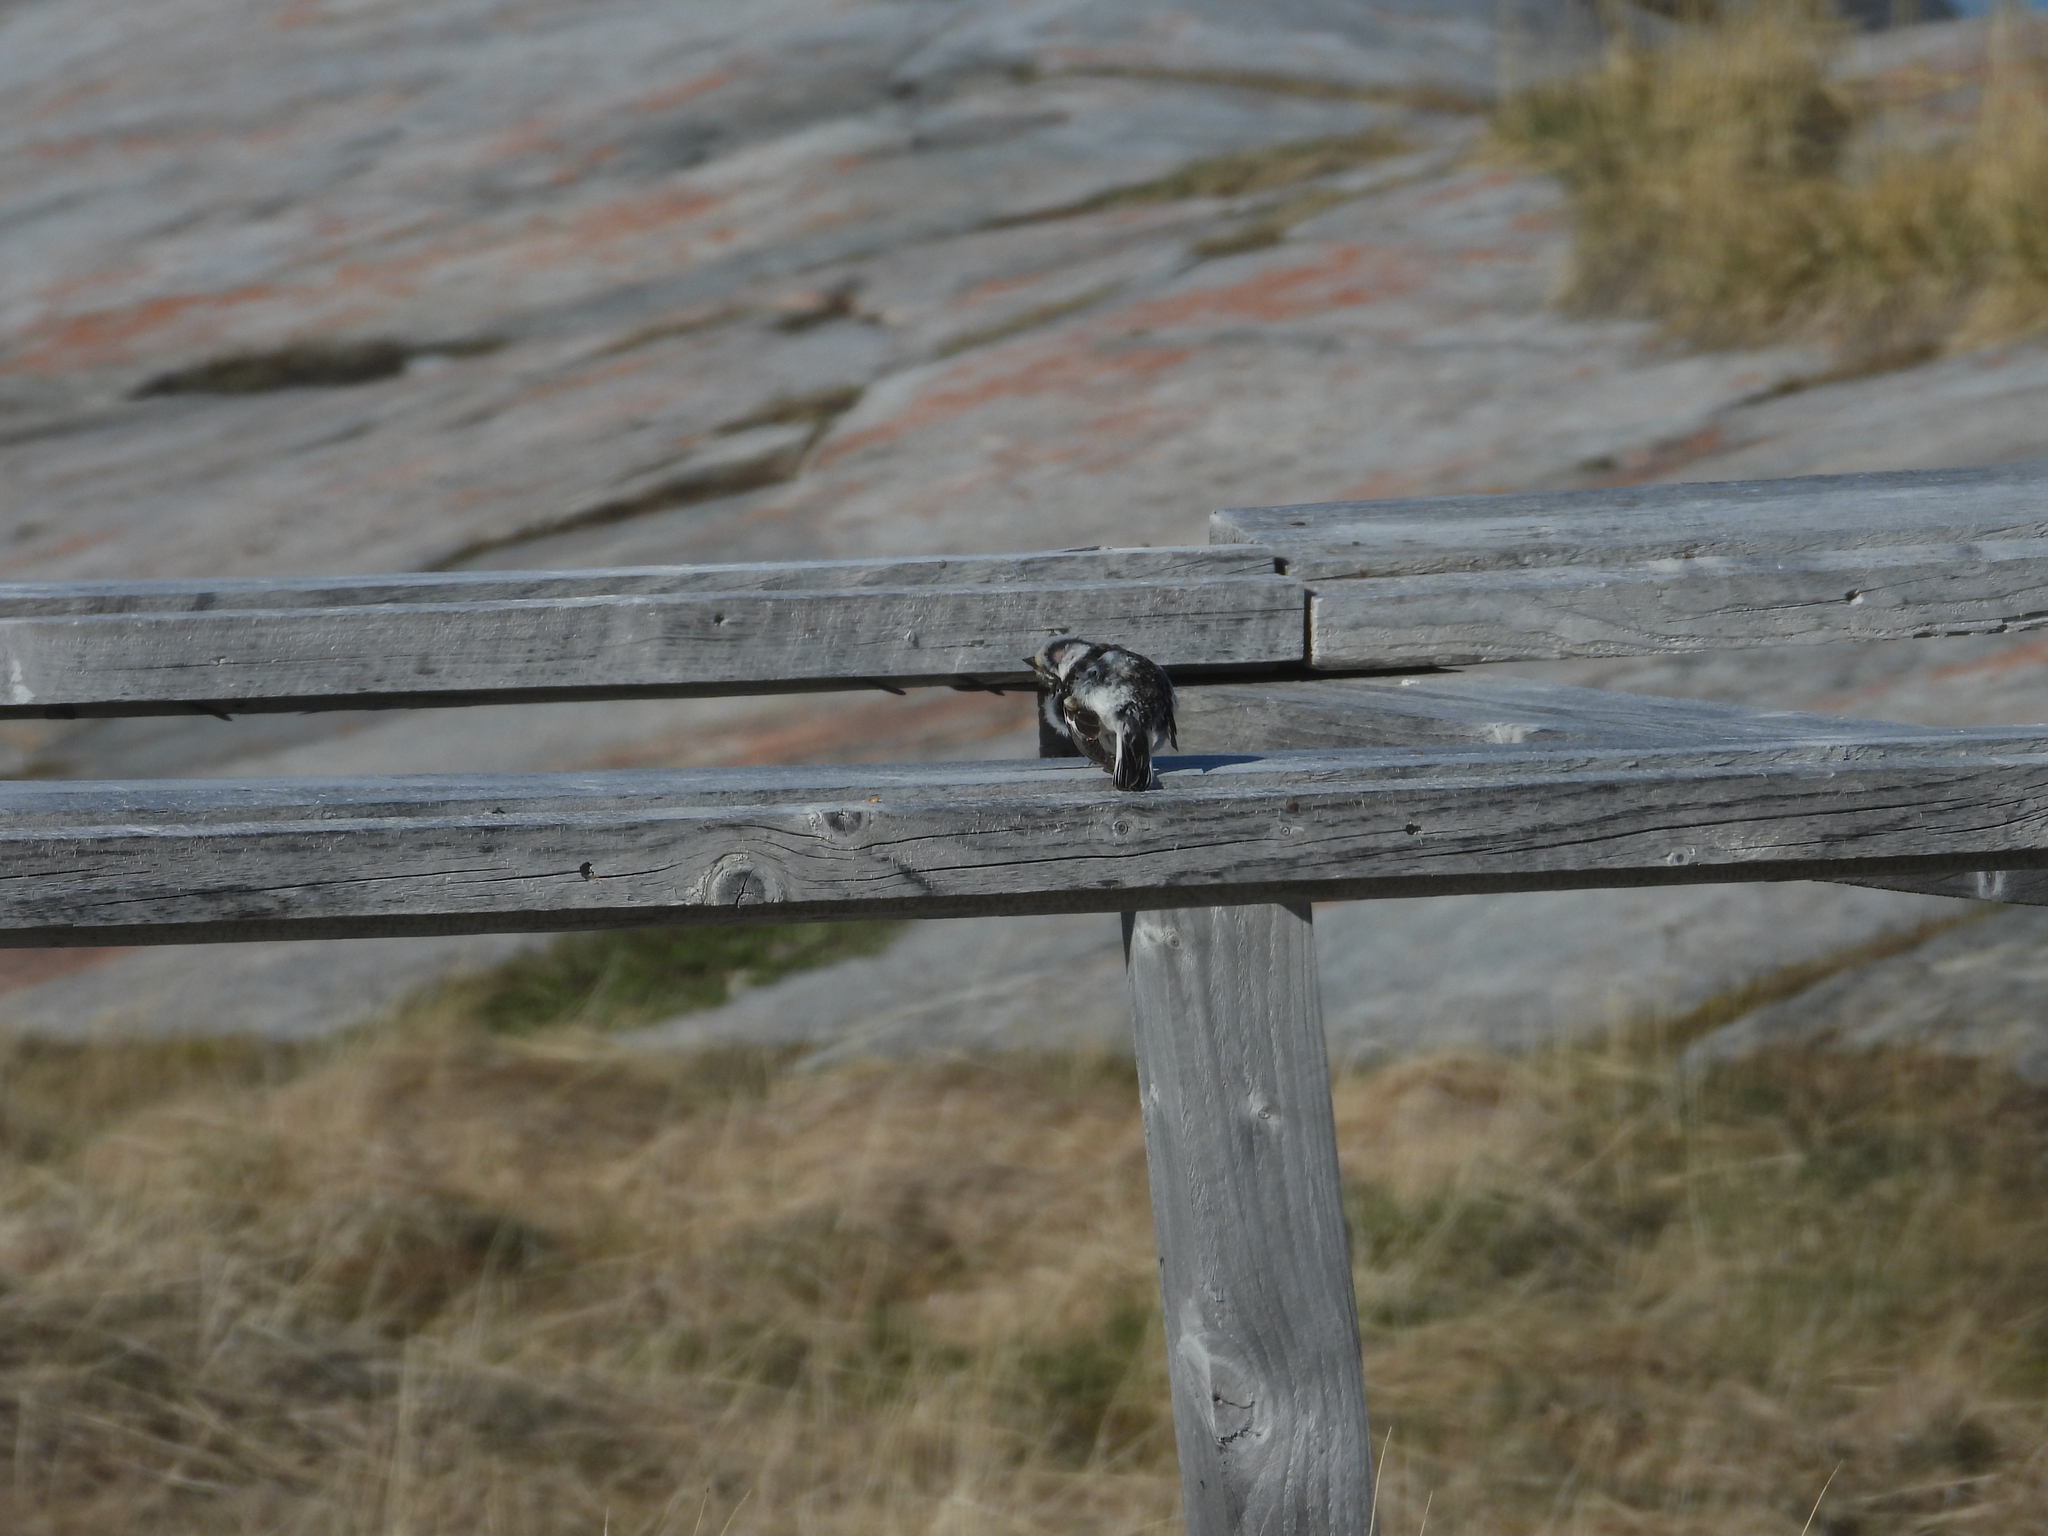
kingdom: Animalia
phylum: Chordata
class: Aves
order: Passeriformes
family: Calcariidae
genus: Plectrophenax
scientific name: Plectrophenax nivalis
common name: Snow bunting
